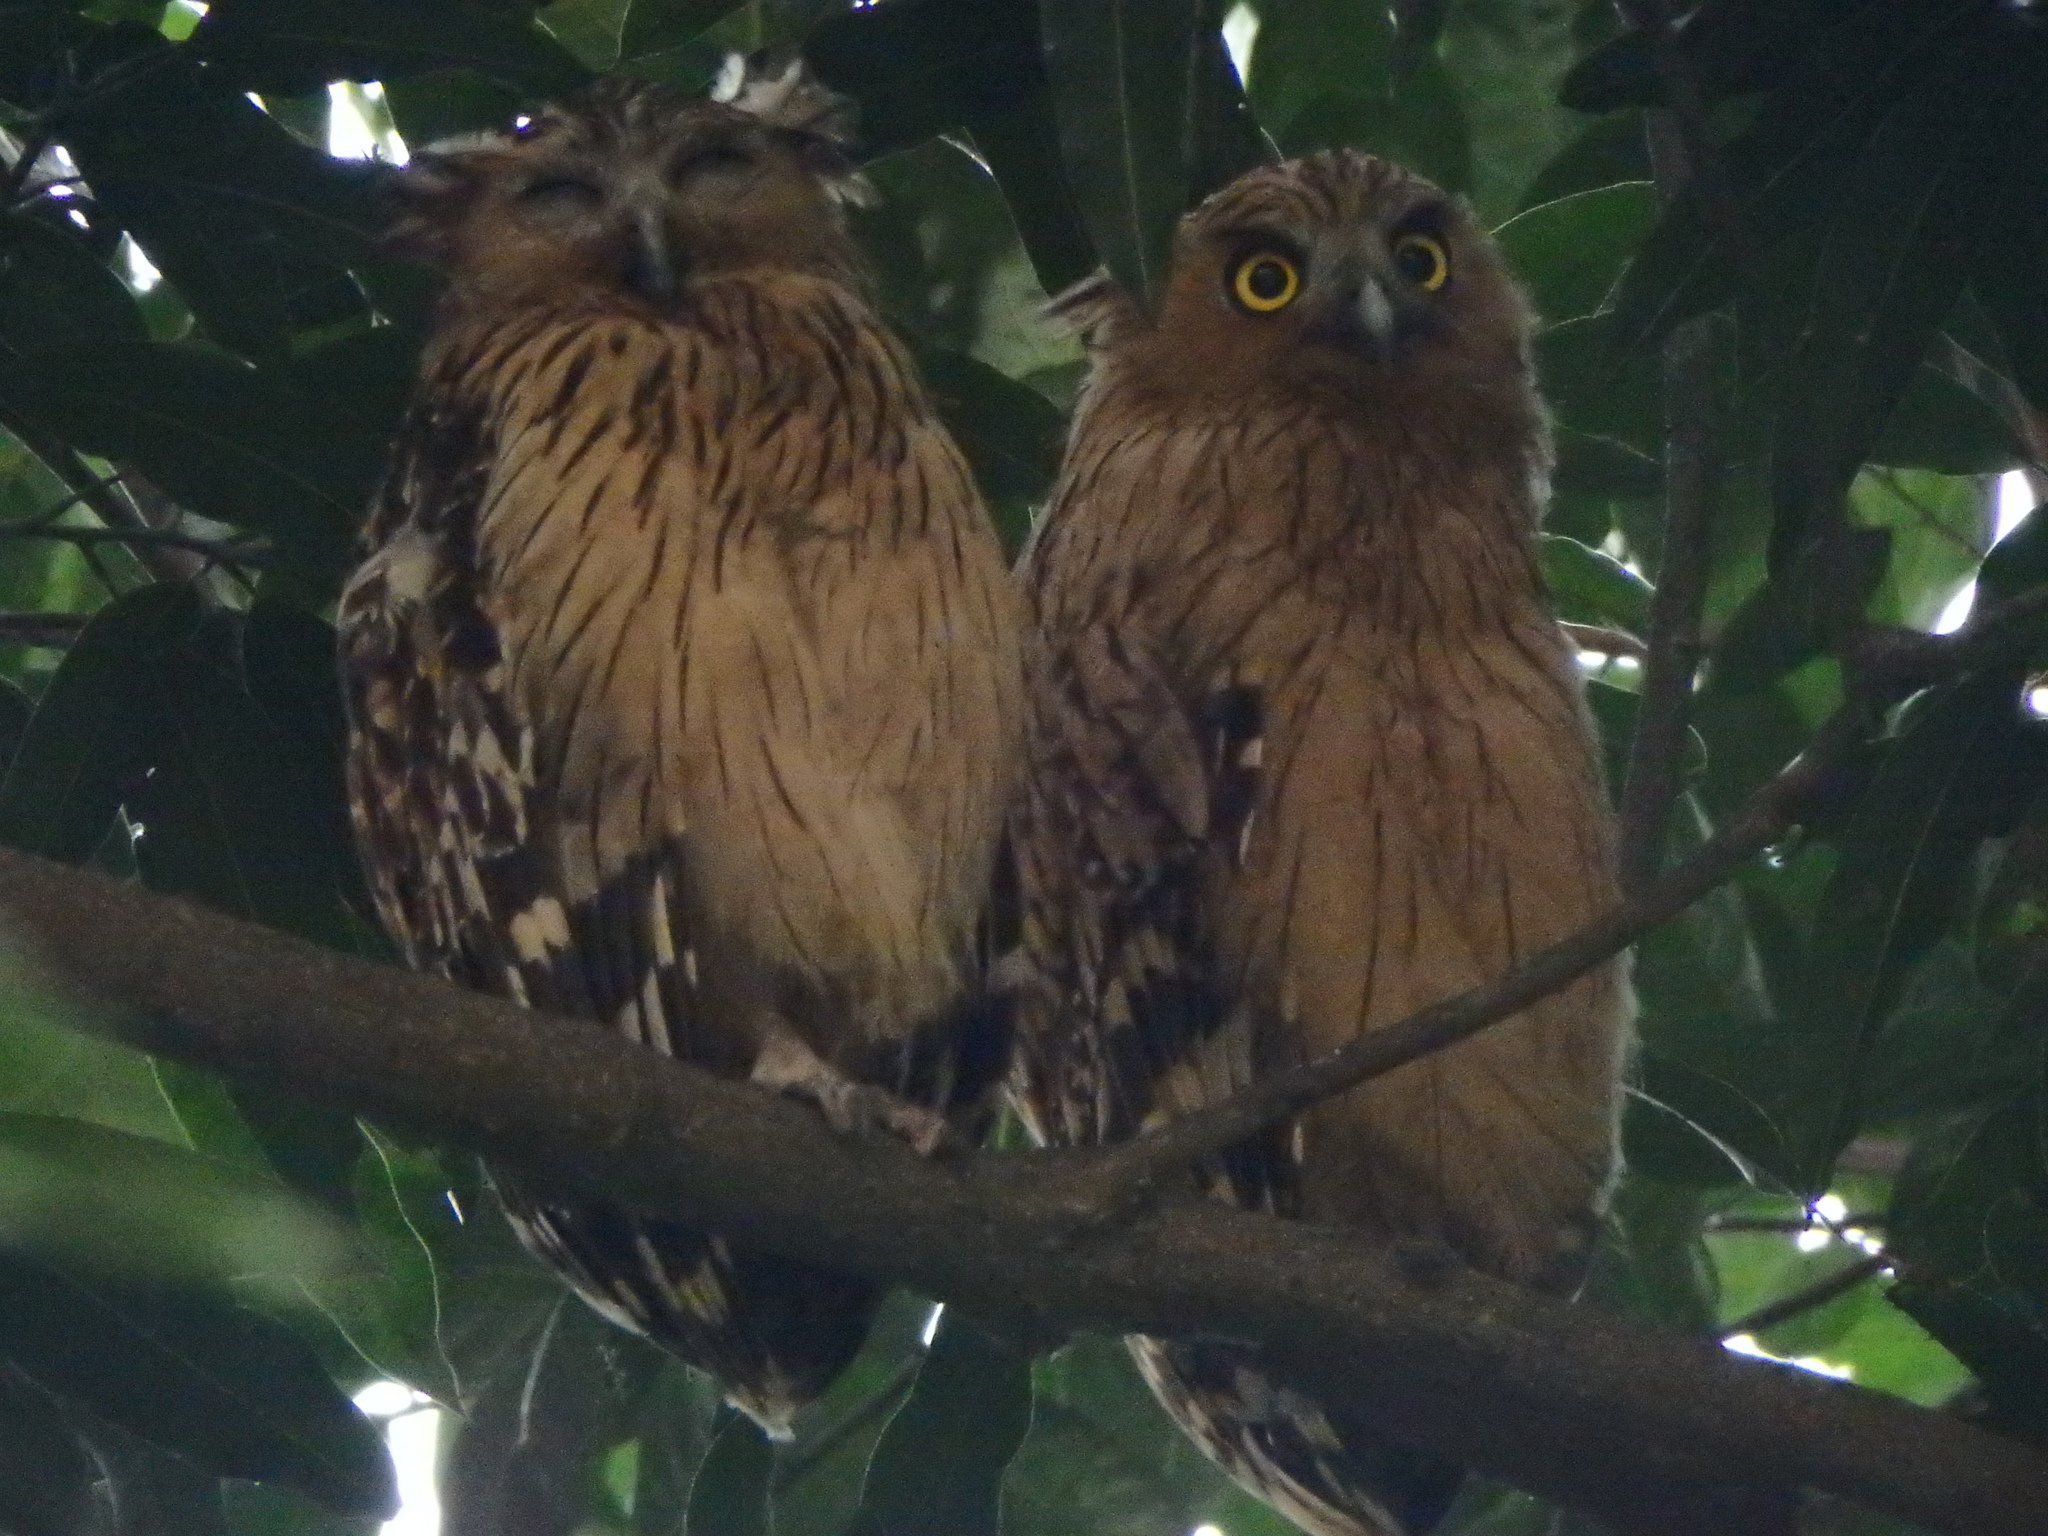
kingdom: Animalia
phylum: Chordata
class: Aves
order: Strigiformes
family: Strigidae
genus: Ketupa
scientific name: Ketupa ketupu
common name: Buffy fish-owl
